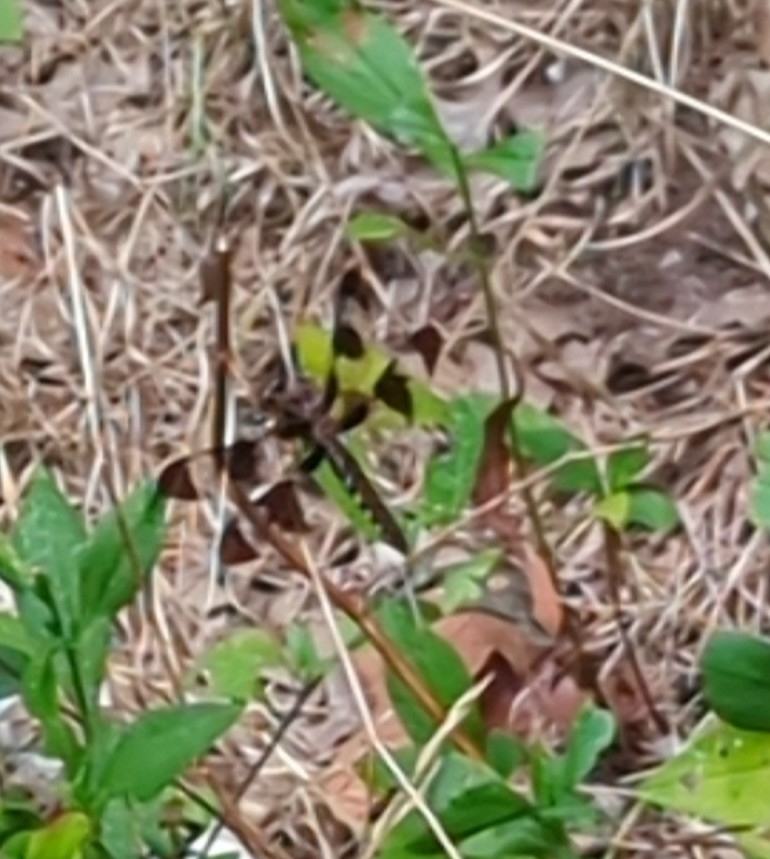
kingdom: Animalia
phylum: Arthropoda
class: Insecta
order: Odonata
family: Libellulidae
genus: Plathemis
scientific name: Plathemis lydia
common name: Common whitetail
